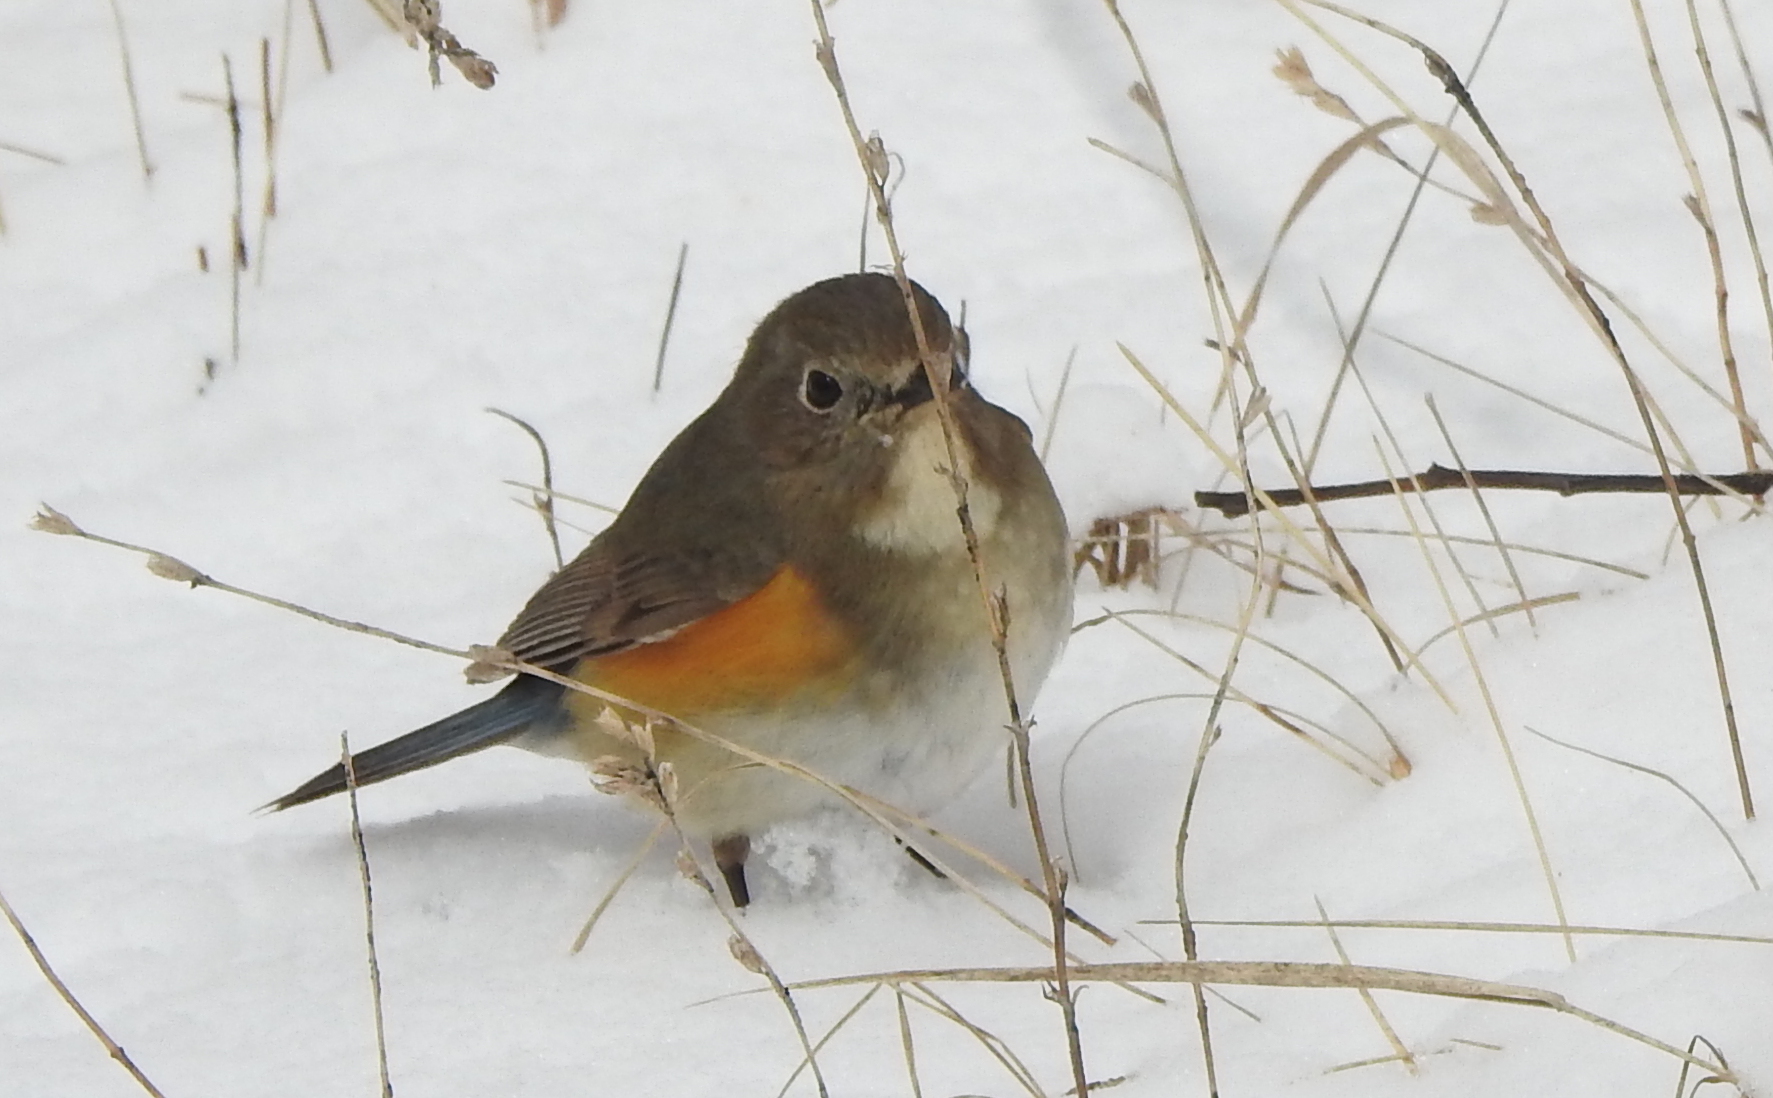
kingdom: Animalia
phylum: Chordata
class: Aves
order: Passeriformes
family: Muscicapidae
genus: Tarsiger
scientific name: Tarsiger cyanurus
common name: Red-flanked bluetail
